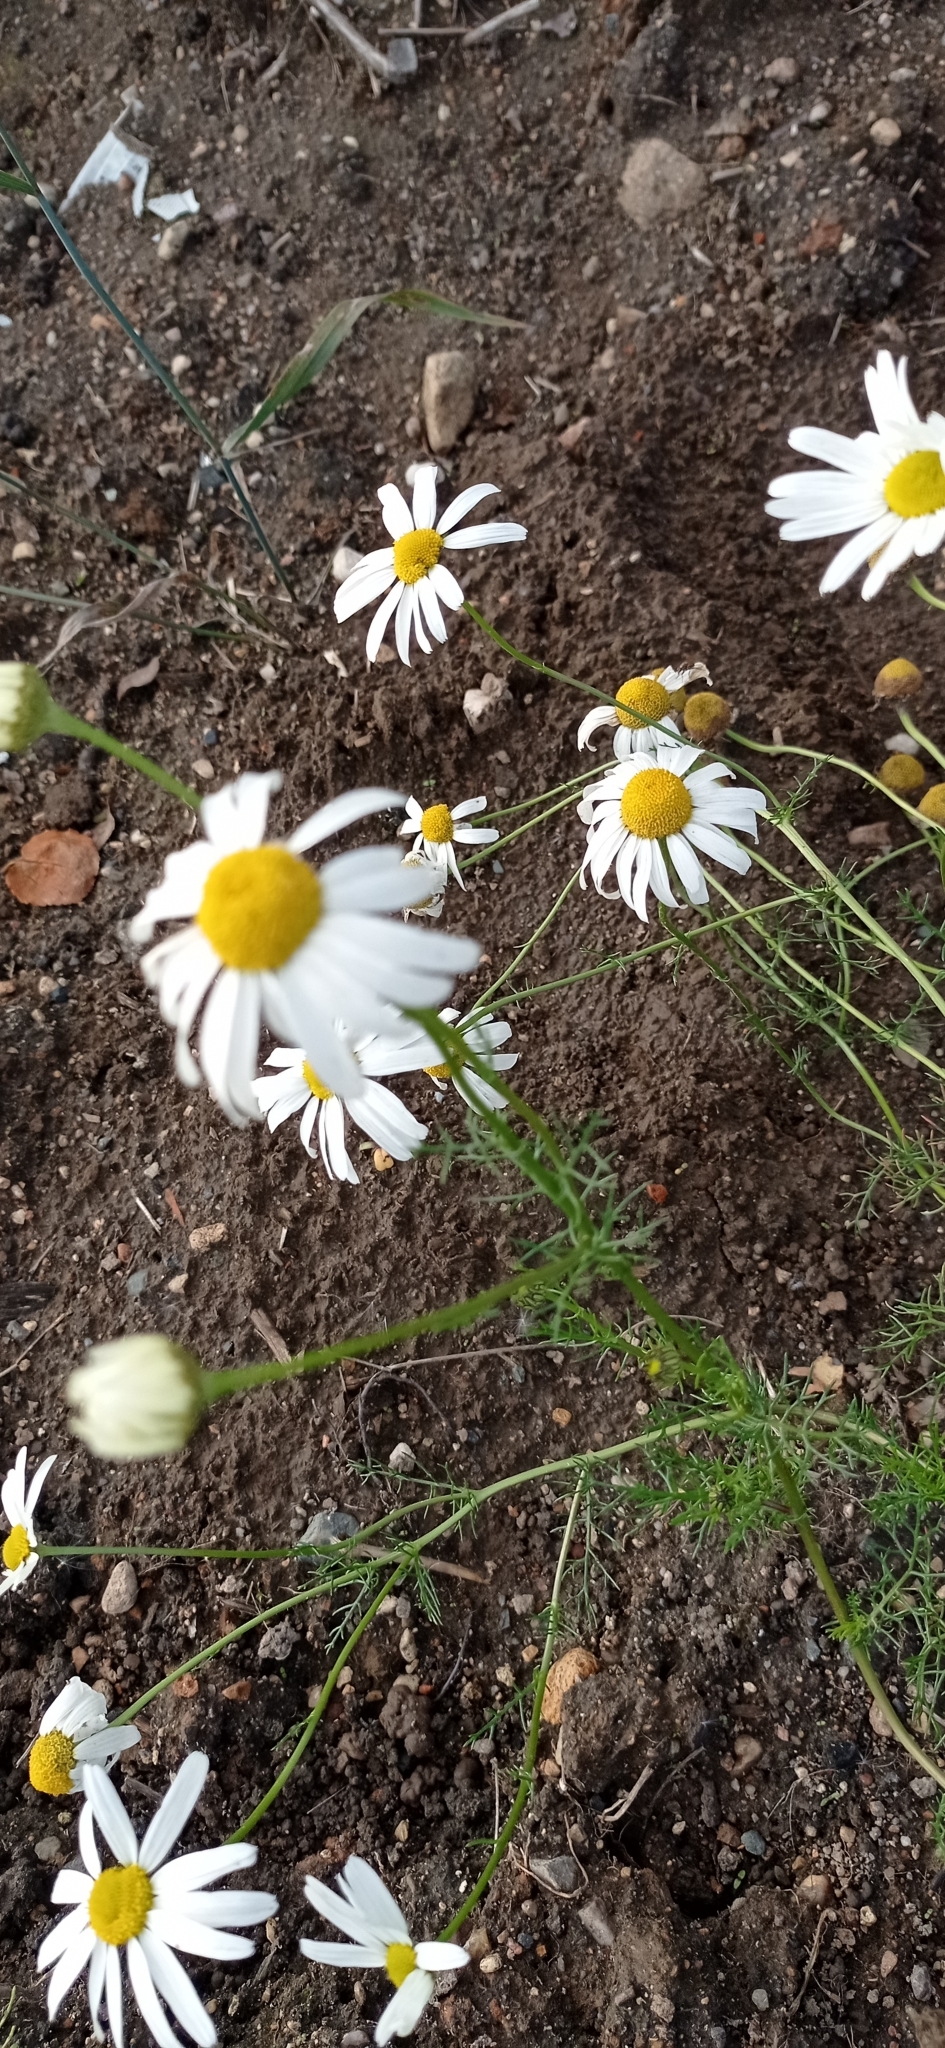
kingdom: Plantae
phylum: Tracheophyta
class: Magnoliopsida
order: Asterales
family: Asteraceae
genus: Tripleurospermum
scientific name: Tripleurospermum inodorum
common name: Scentless mayweed
